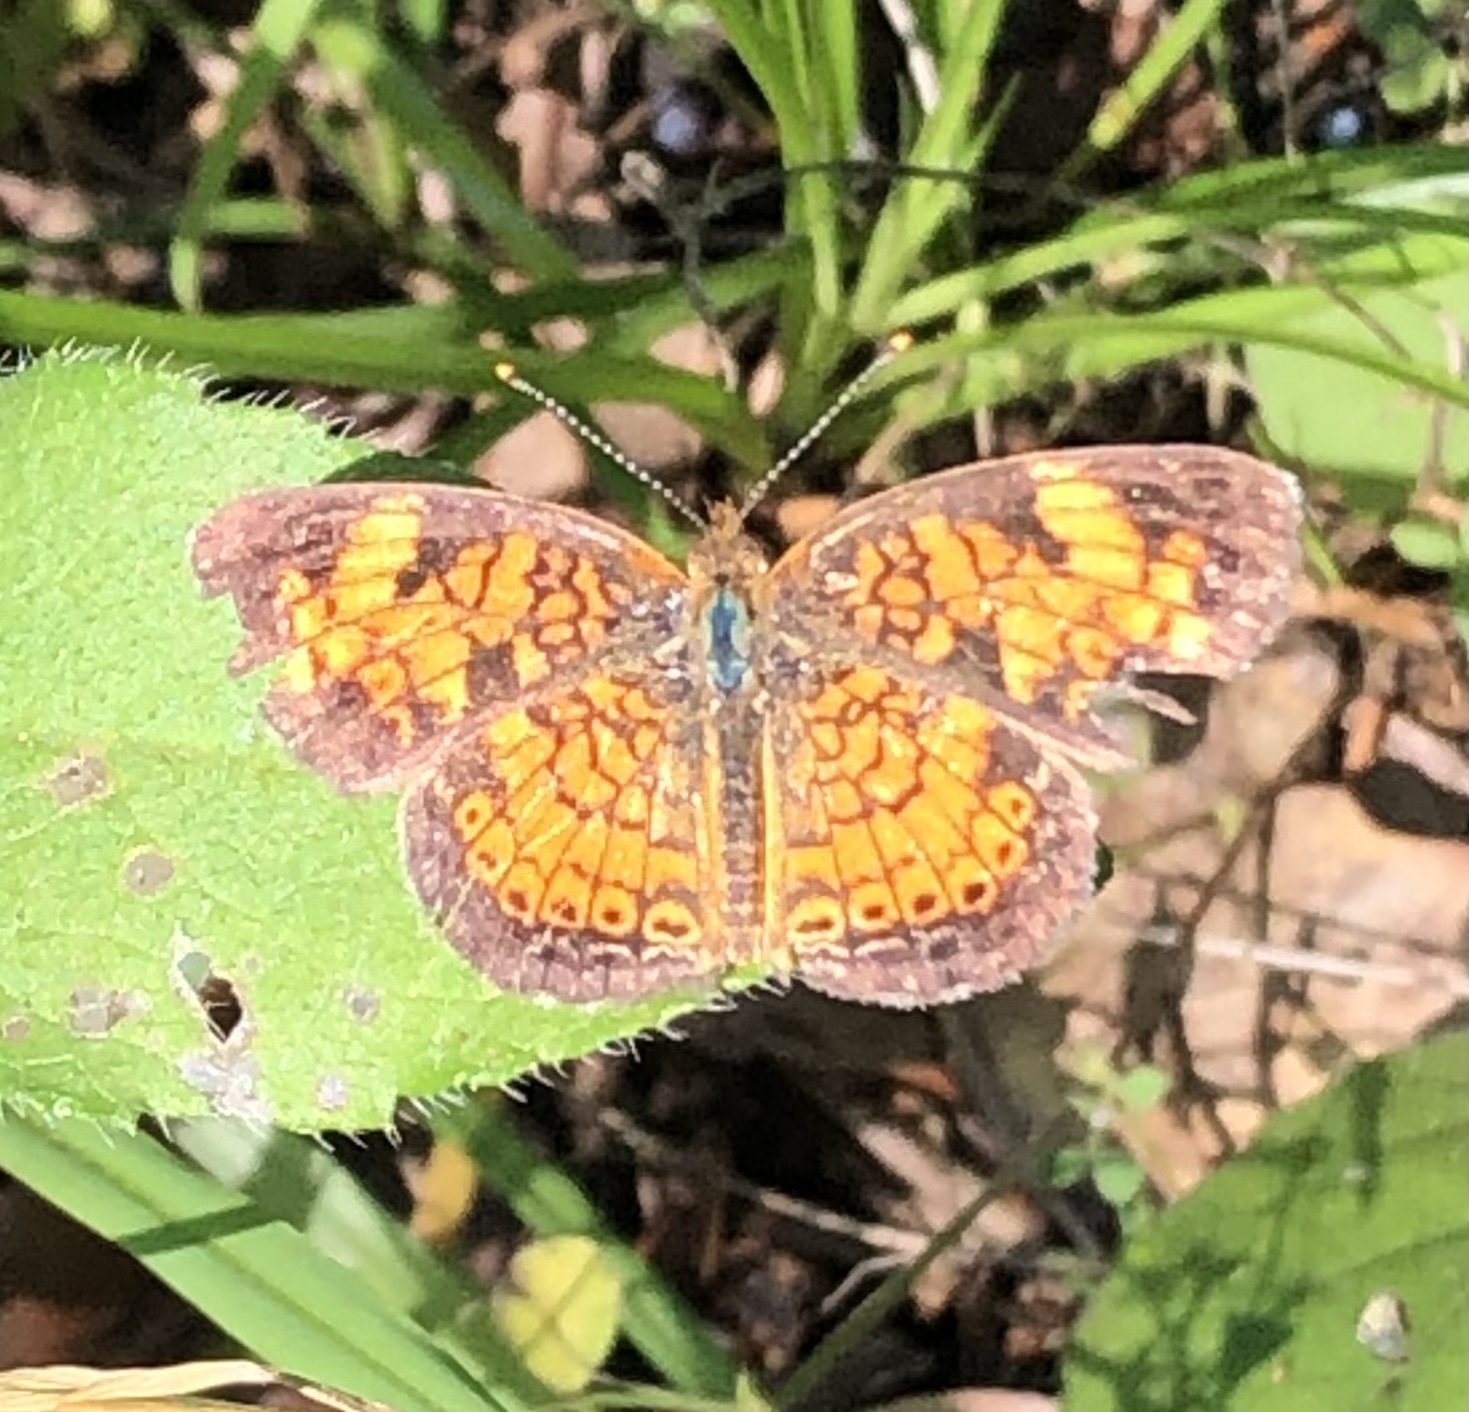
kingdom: Animalia
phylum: Arthropoda
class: Insecta
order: Lepidoptera
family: Nymphalidae
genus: Phyciodes
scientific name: Phyciodes tharos
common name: Pearl crescent
